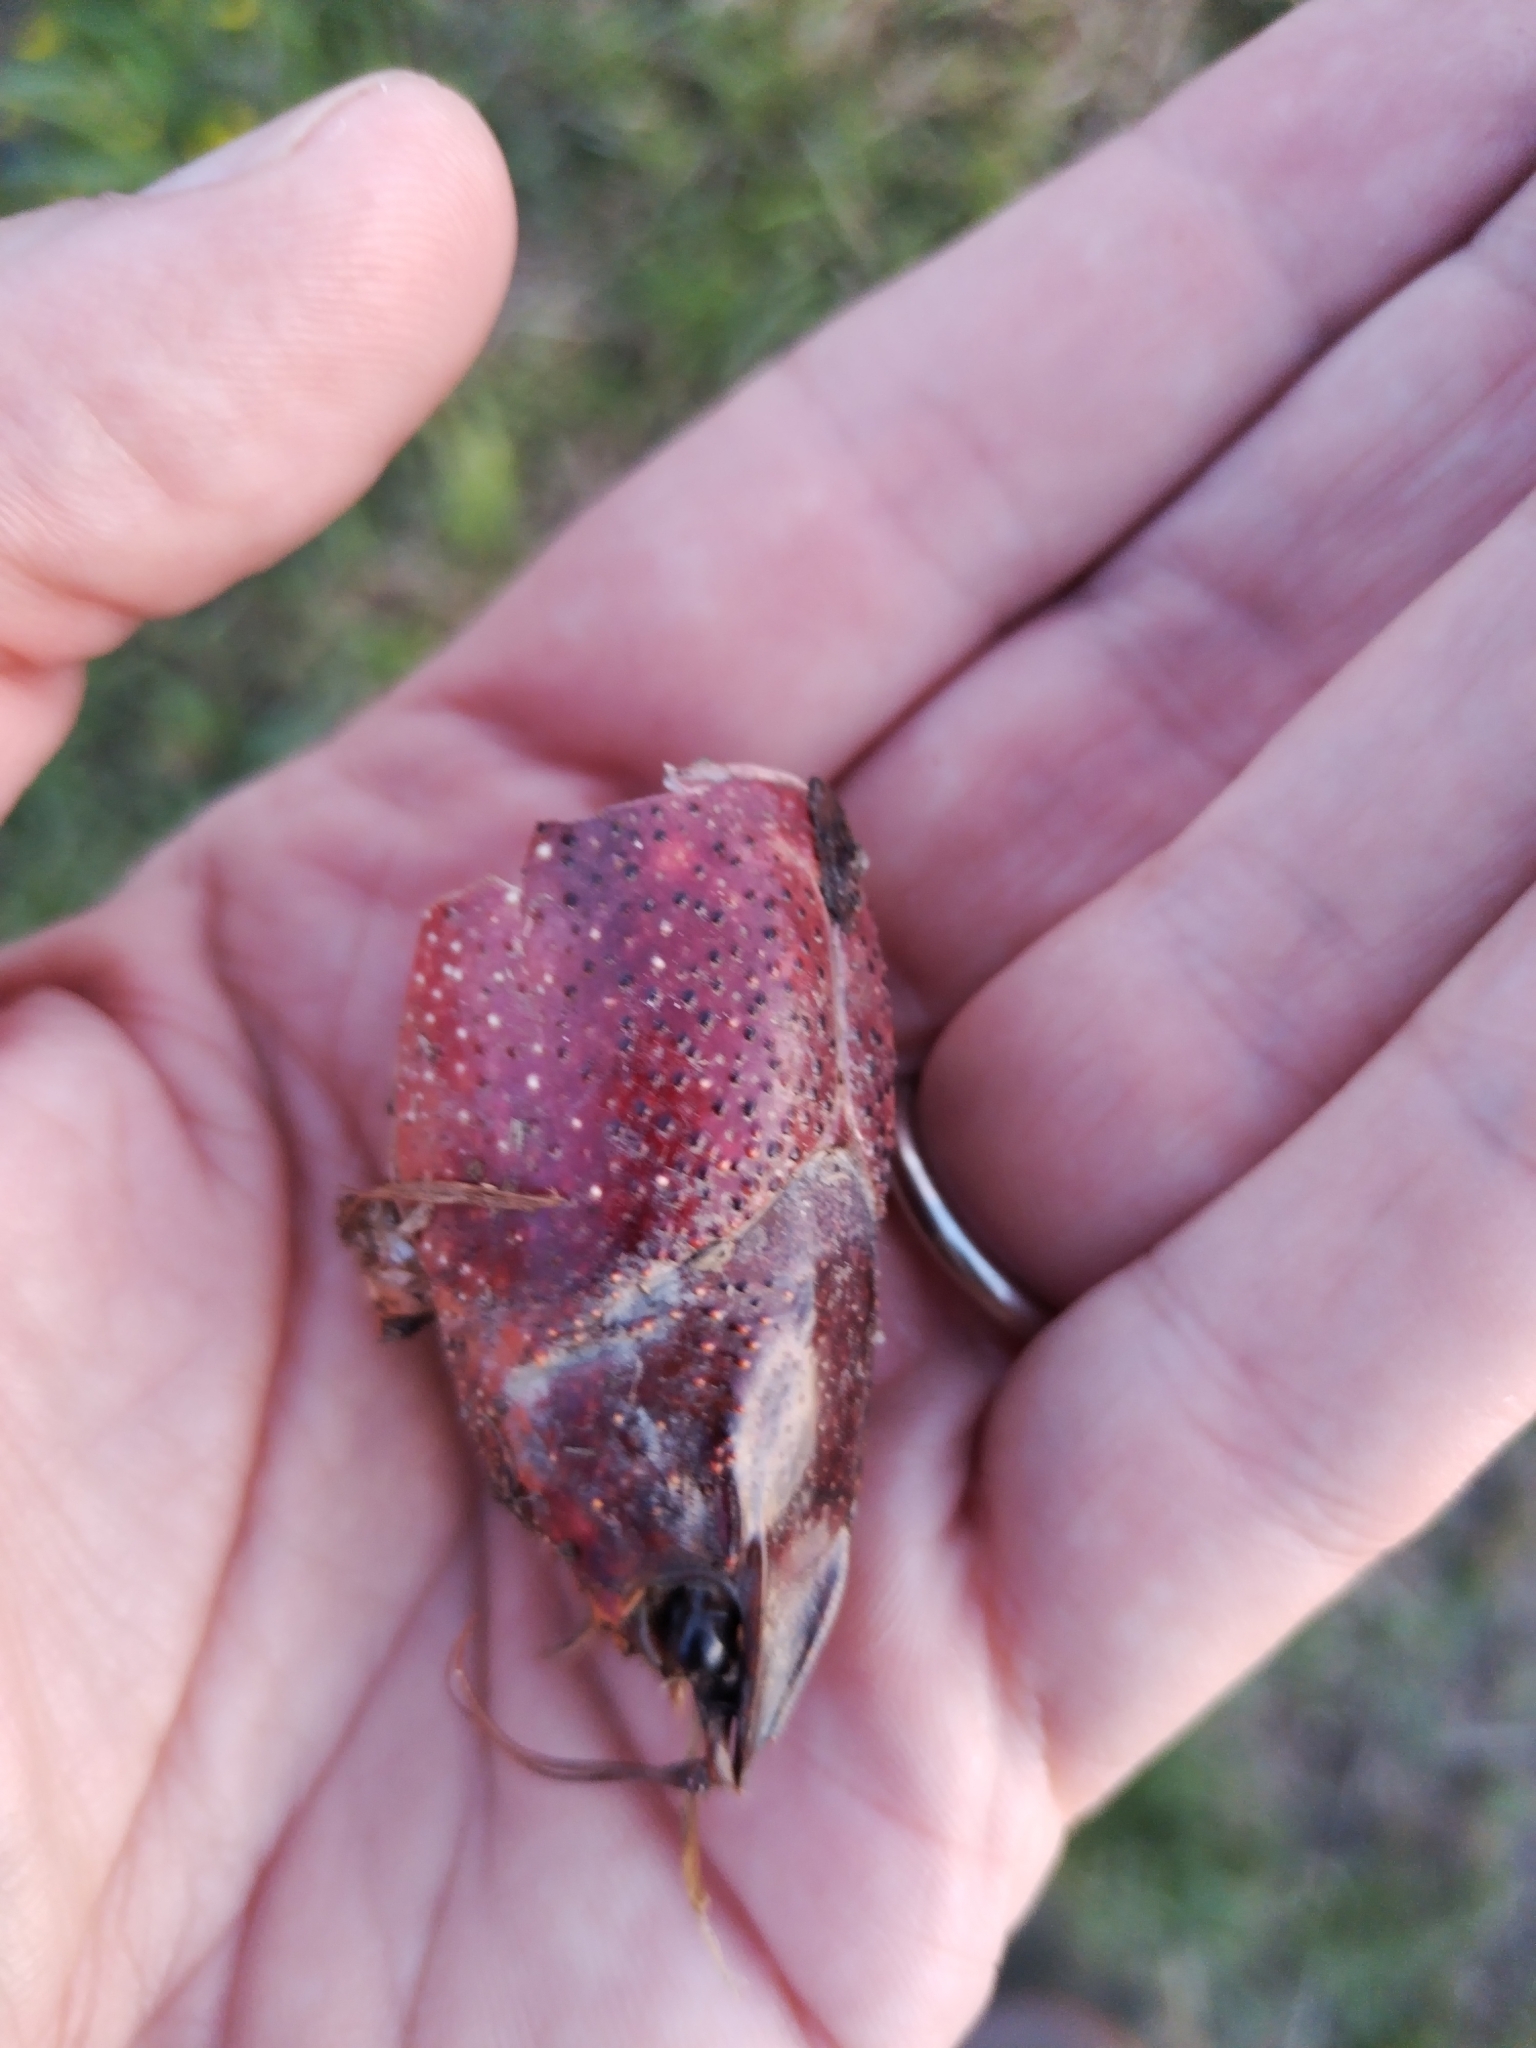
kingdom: Animalia
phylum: Arthropoda
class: Malacostraca
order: Decapoda
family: Cambaridae
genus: Procambarus
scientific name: Procambarus clarkii
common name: Red swamp crayfish
